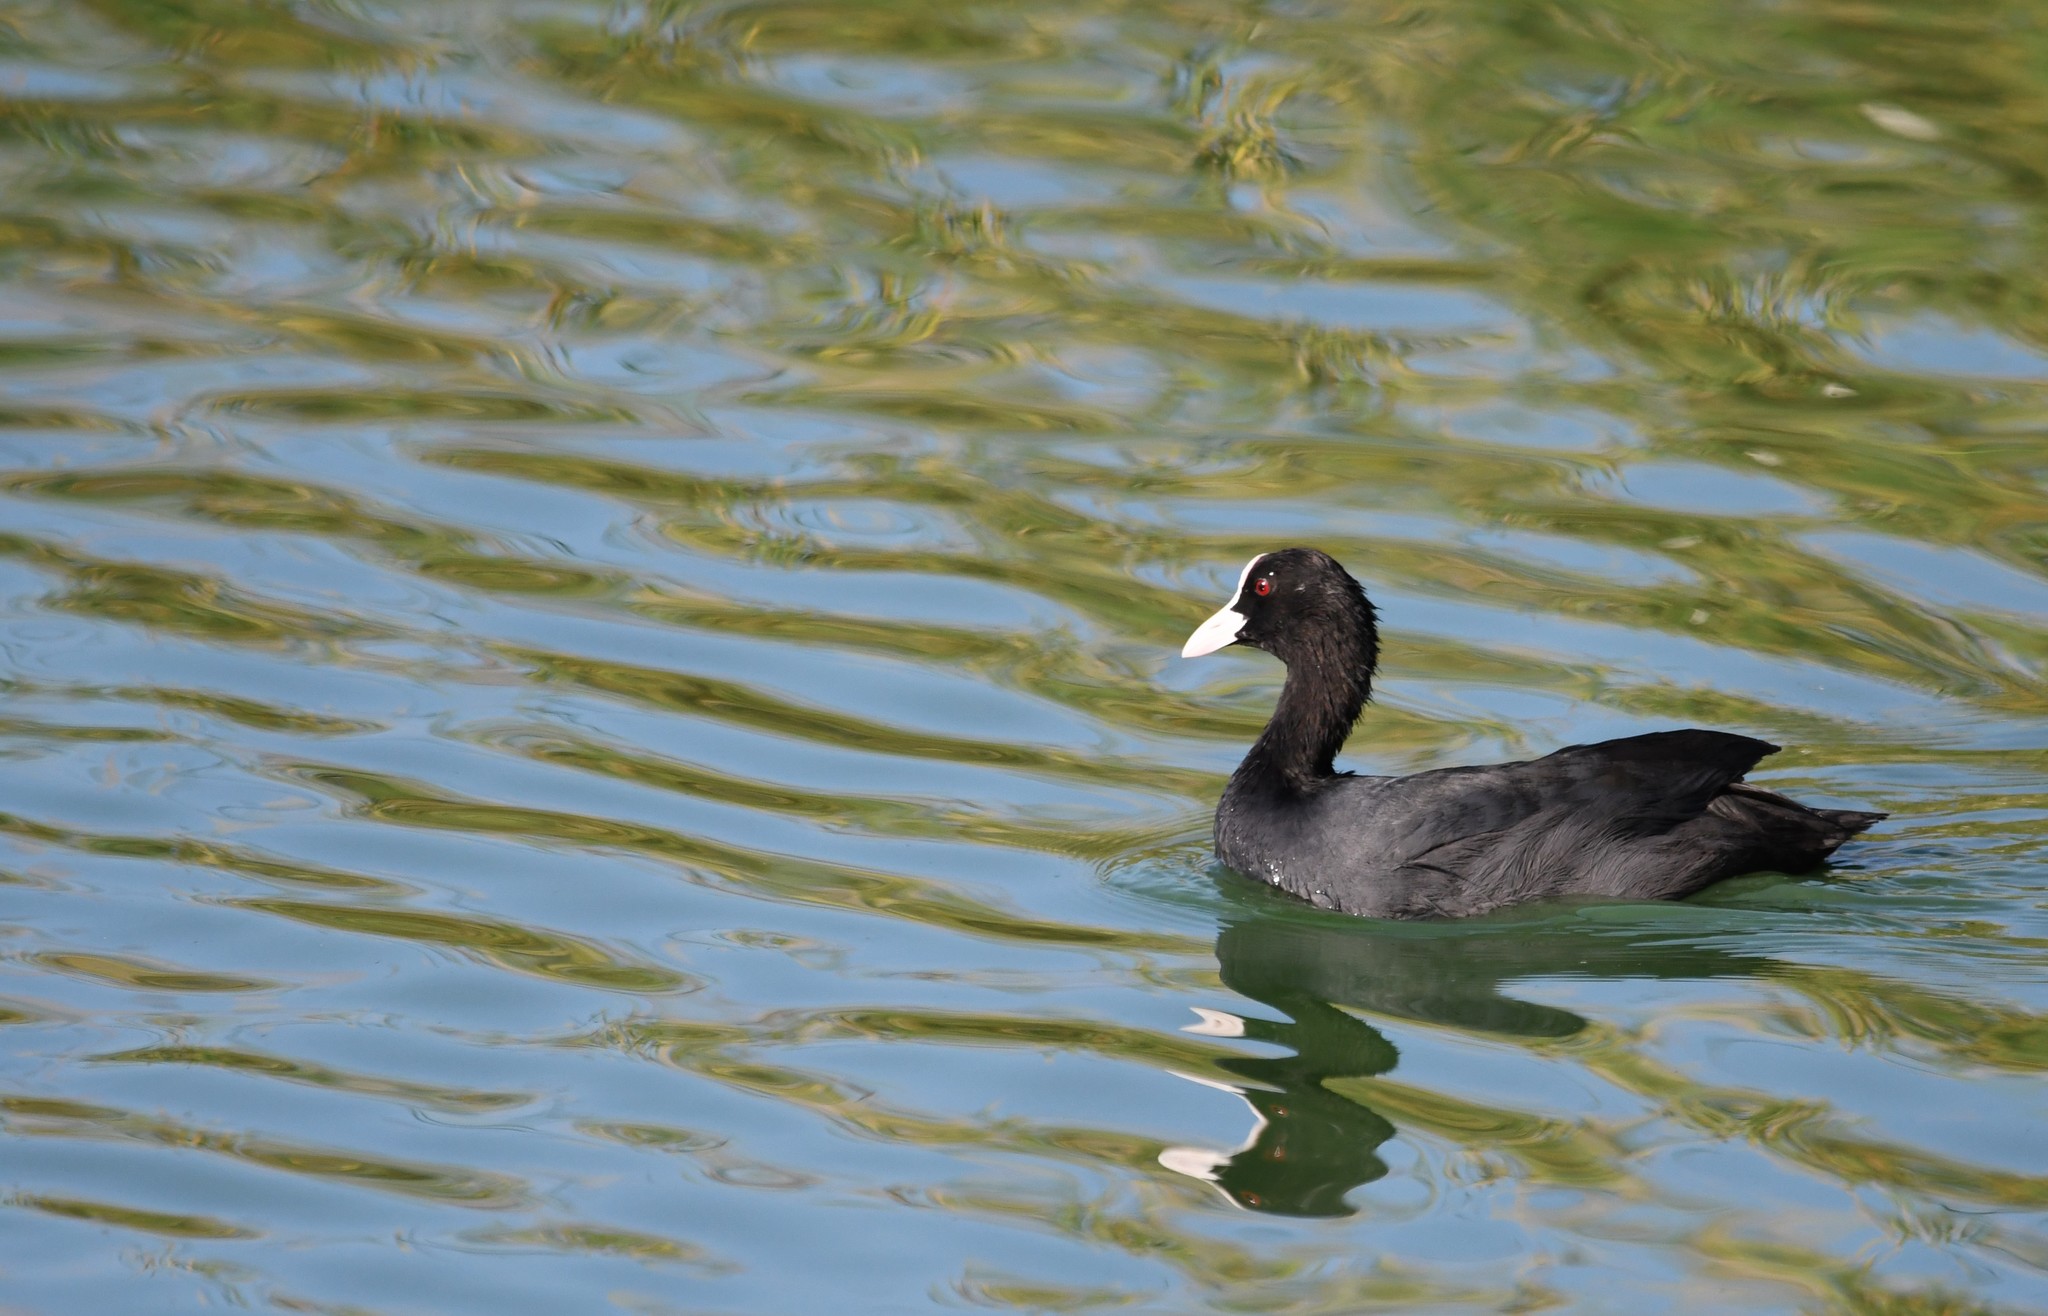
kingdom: Animalia
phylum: Chordata
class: Aves
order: Gruiformes
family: Rallidae
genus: Fulica
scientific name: Fulica atra
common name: Eurasian coot
